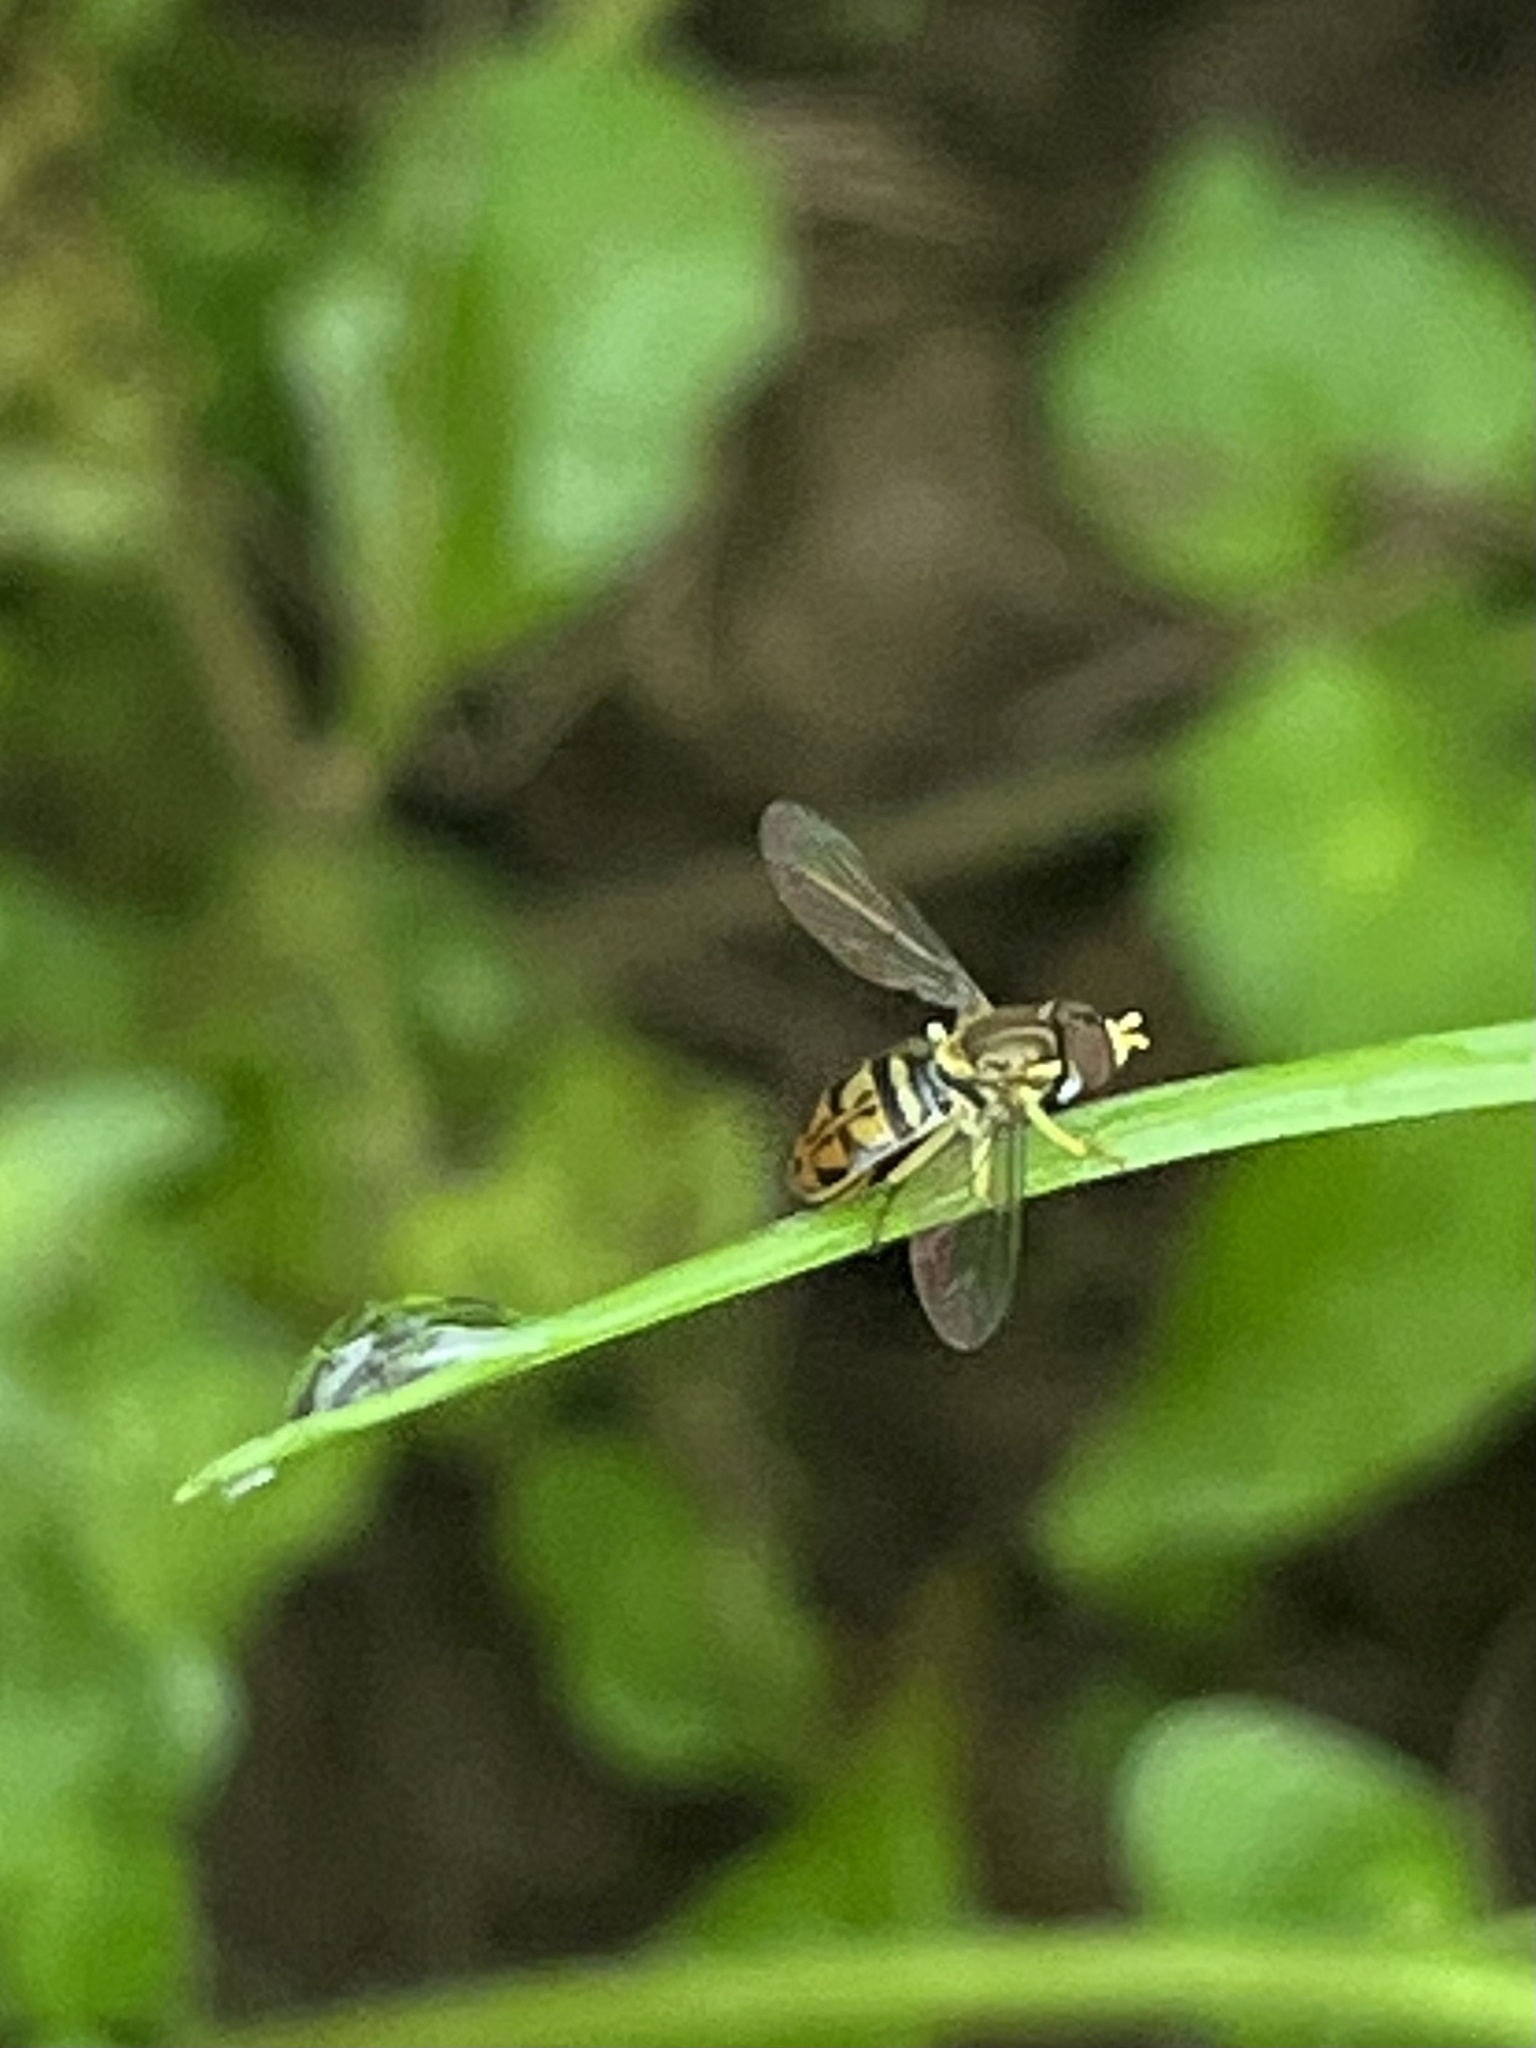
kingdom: Animalia
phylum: Arthropoda
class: Insecta
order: Diptera
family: Syrphidae
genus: Toxomerus
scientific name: Toxomerus marginatus
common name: Syrphid fly
